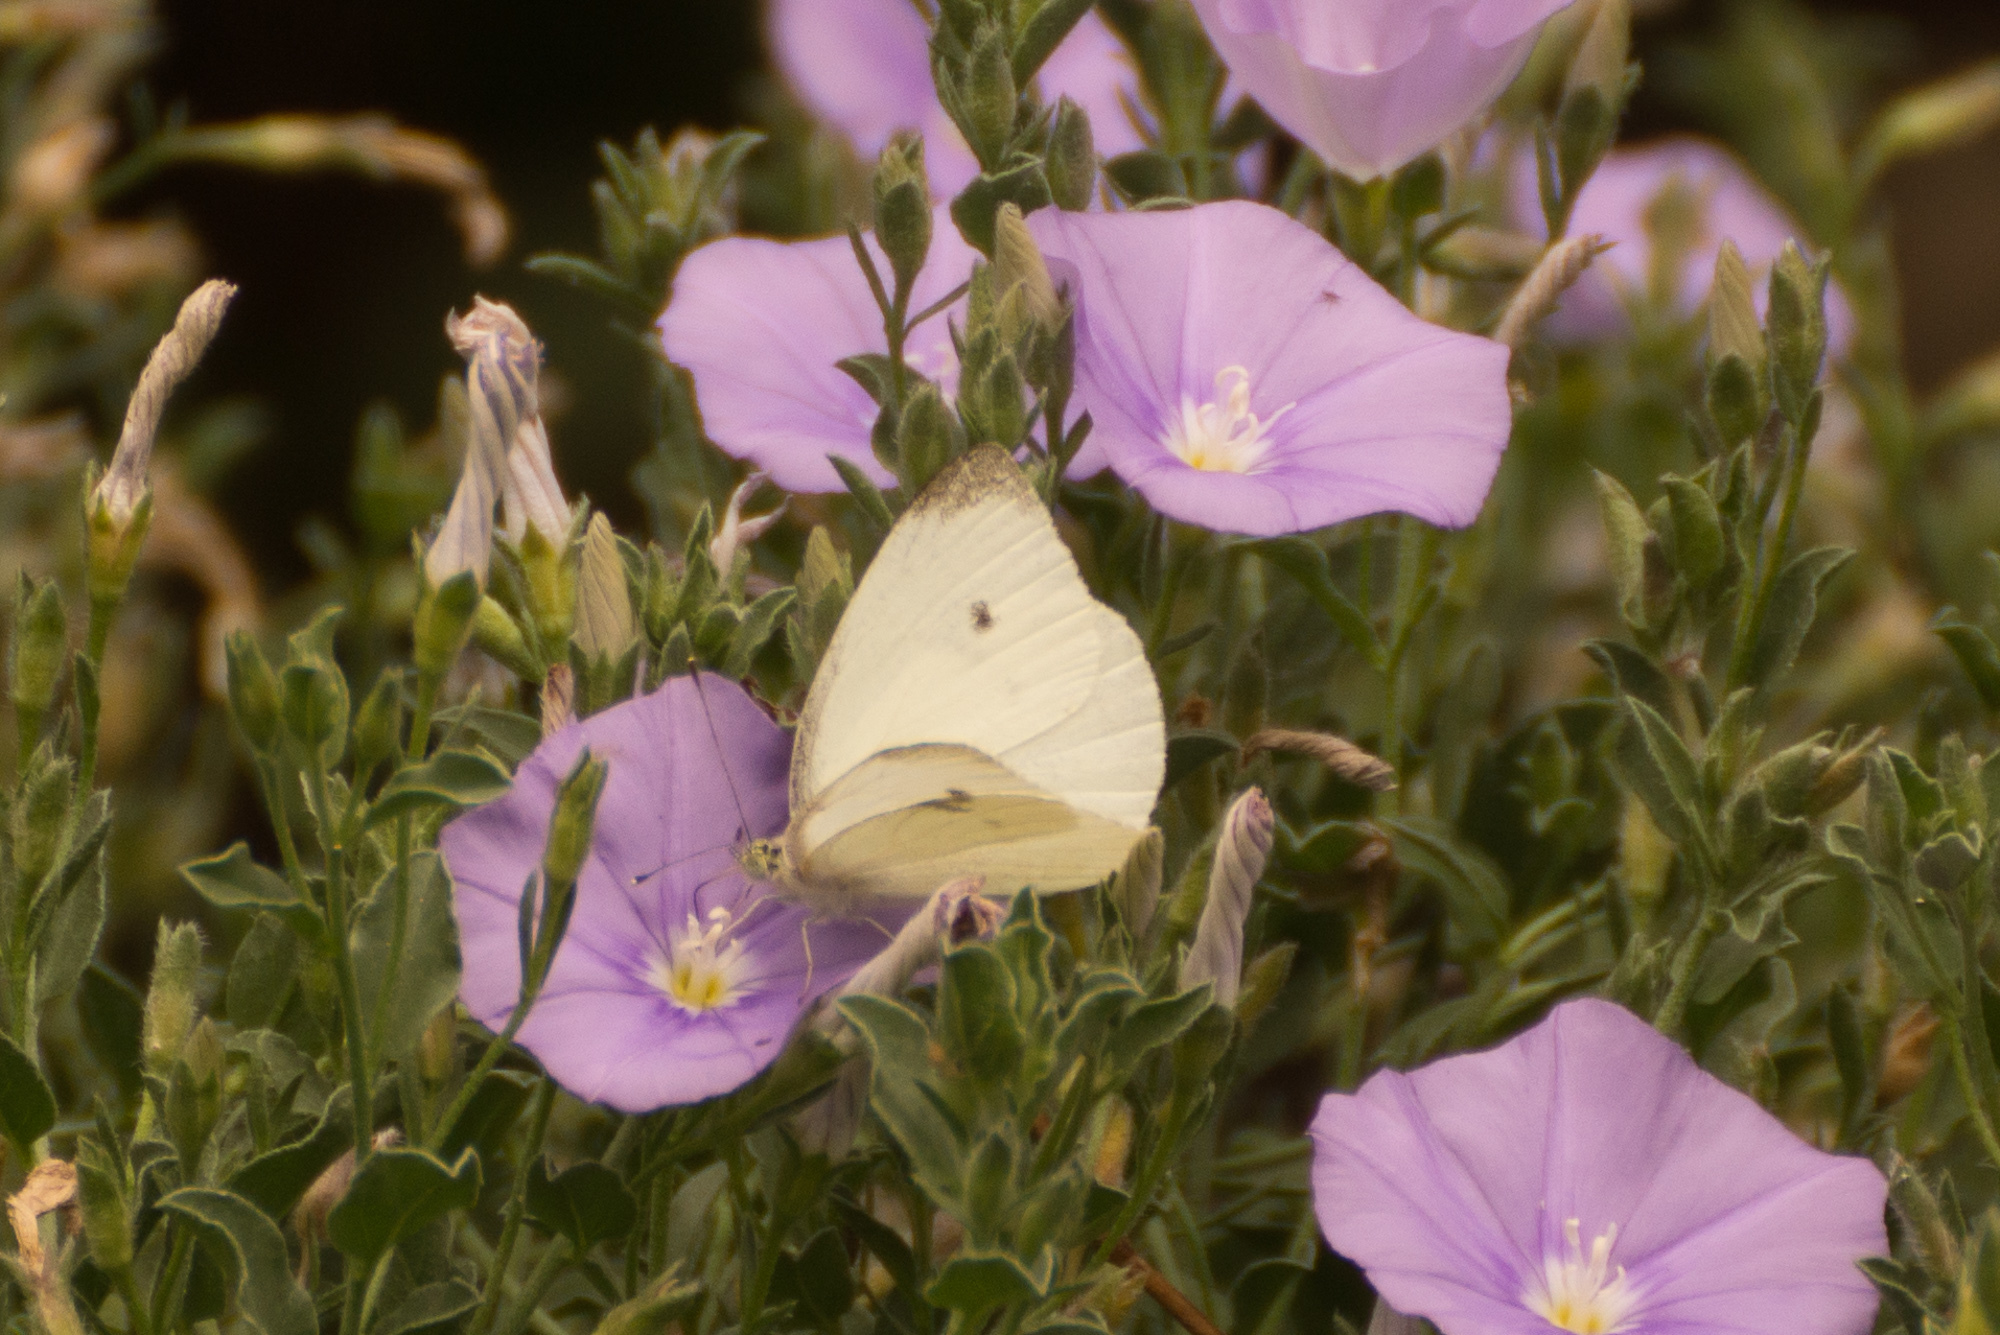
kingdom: Animalia
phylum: Arthropoda
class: Insecta
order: Lepidoptera
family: Pieridae
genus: Pieris
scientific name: Pieris rapae
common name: Small white
